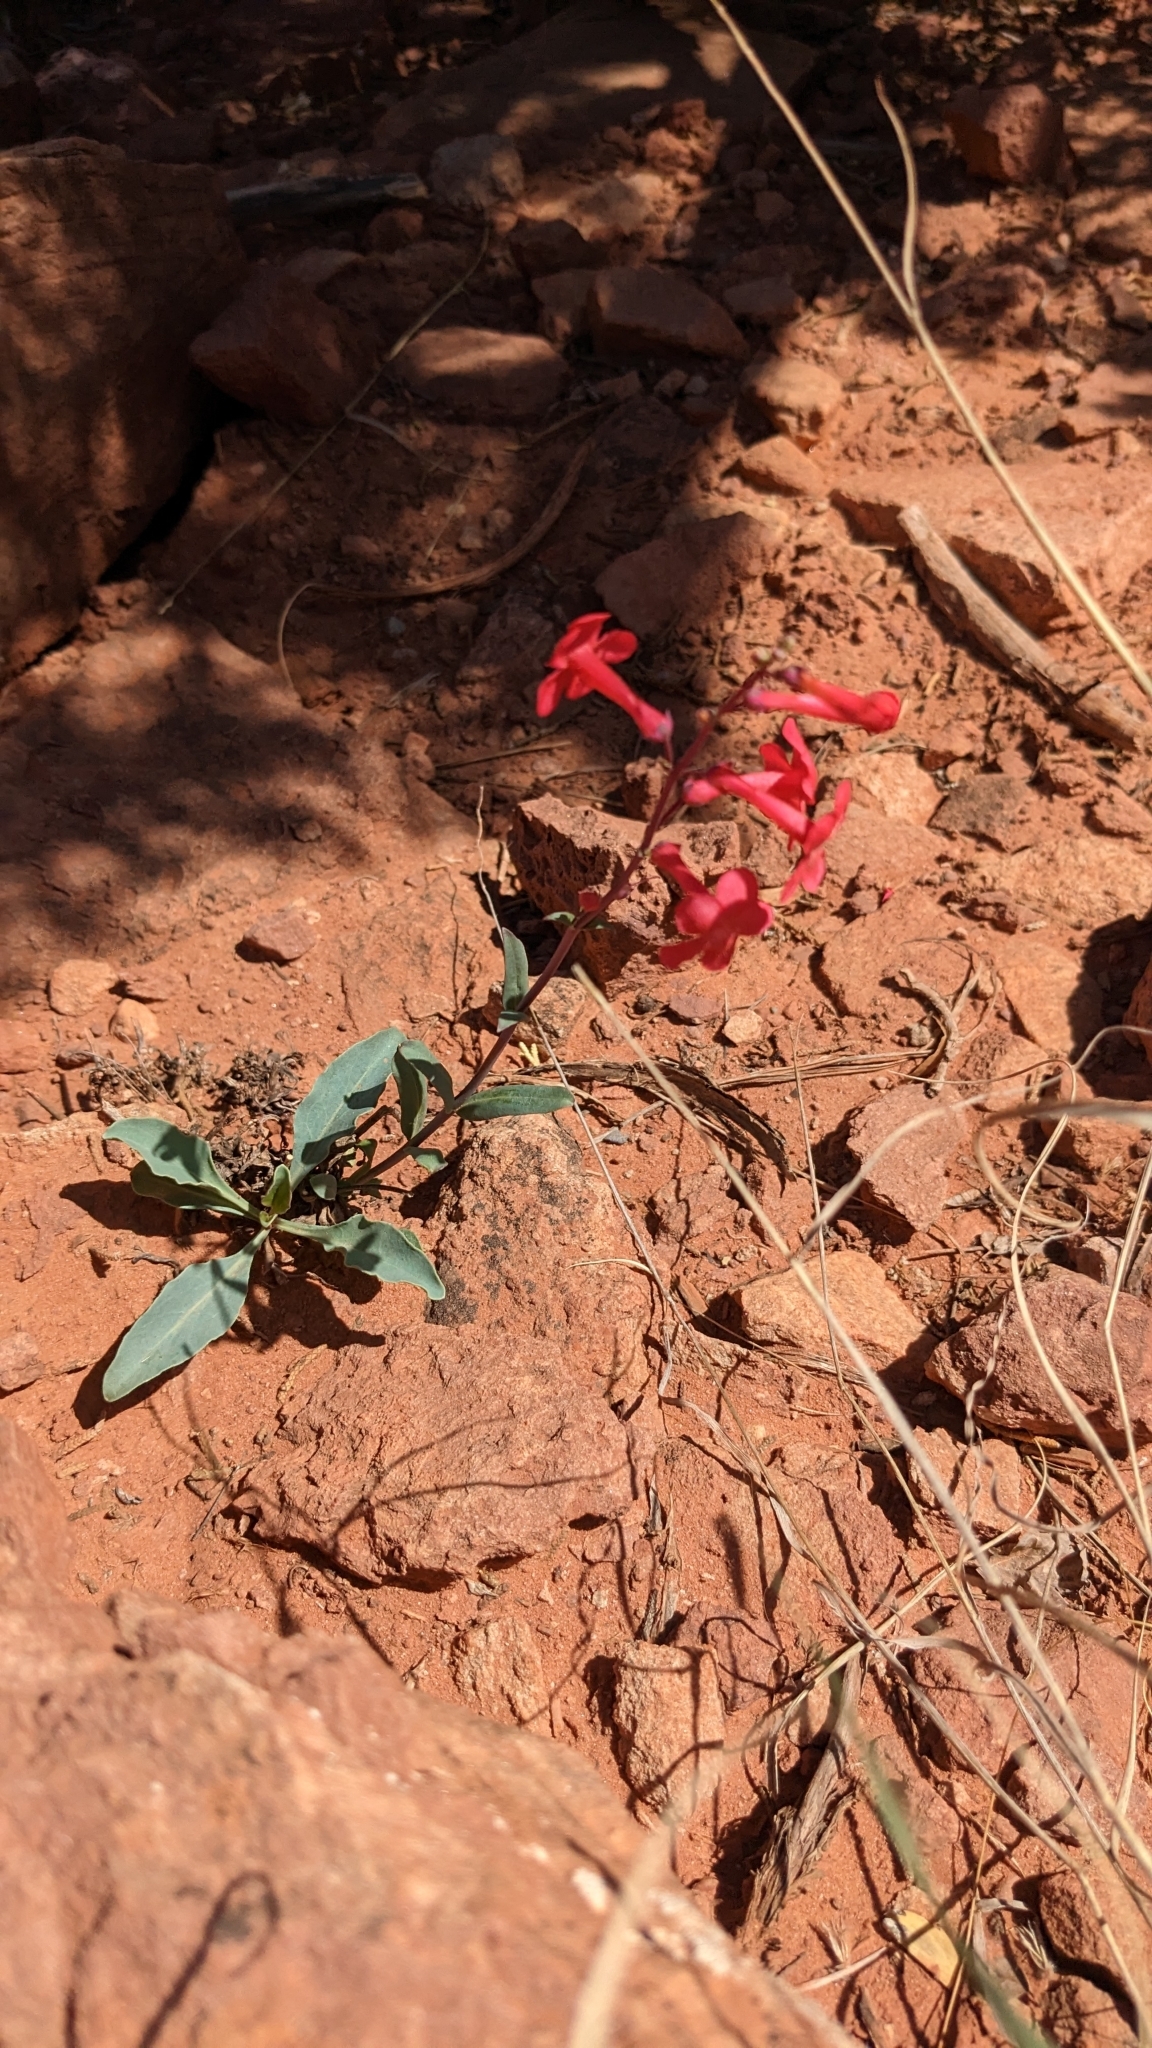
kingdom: Plantae
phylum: Tracheophyta
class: Magnoliopsida
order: Lamiales
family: Plantaginaceae
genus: Penstemon
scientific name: Penstemon utahensis
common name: Utah penstemon
